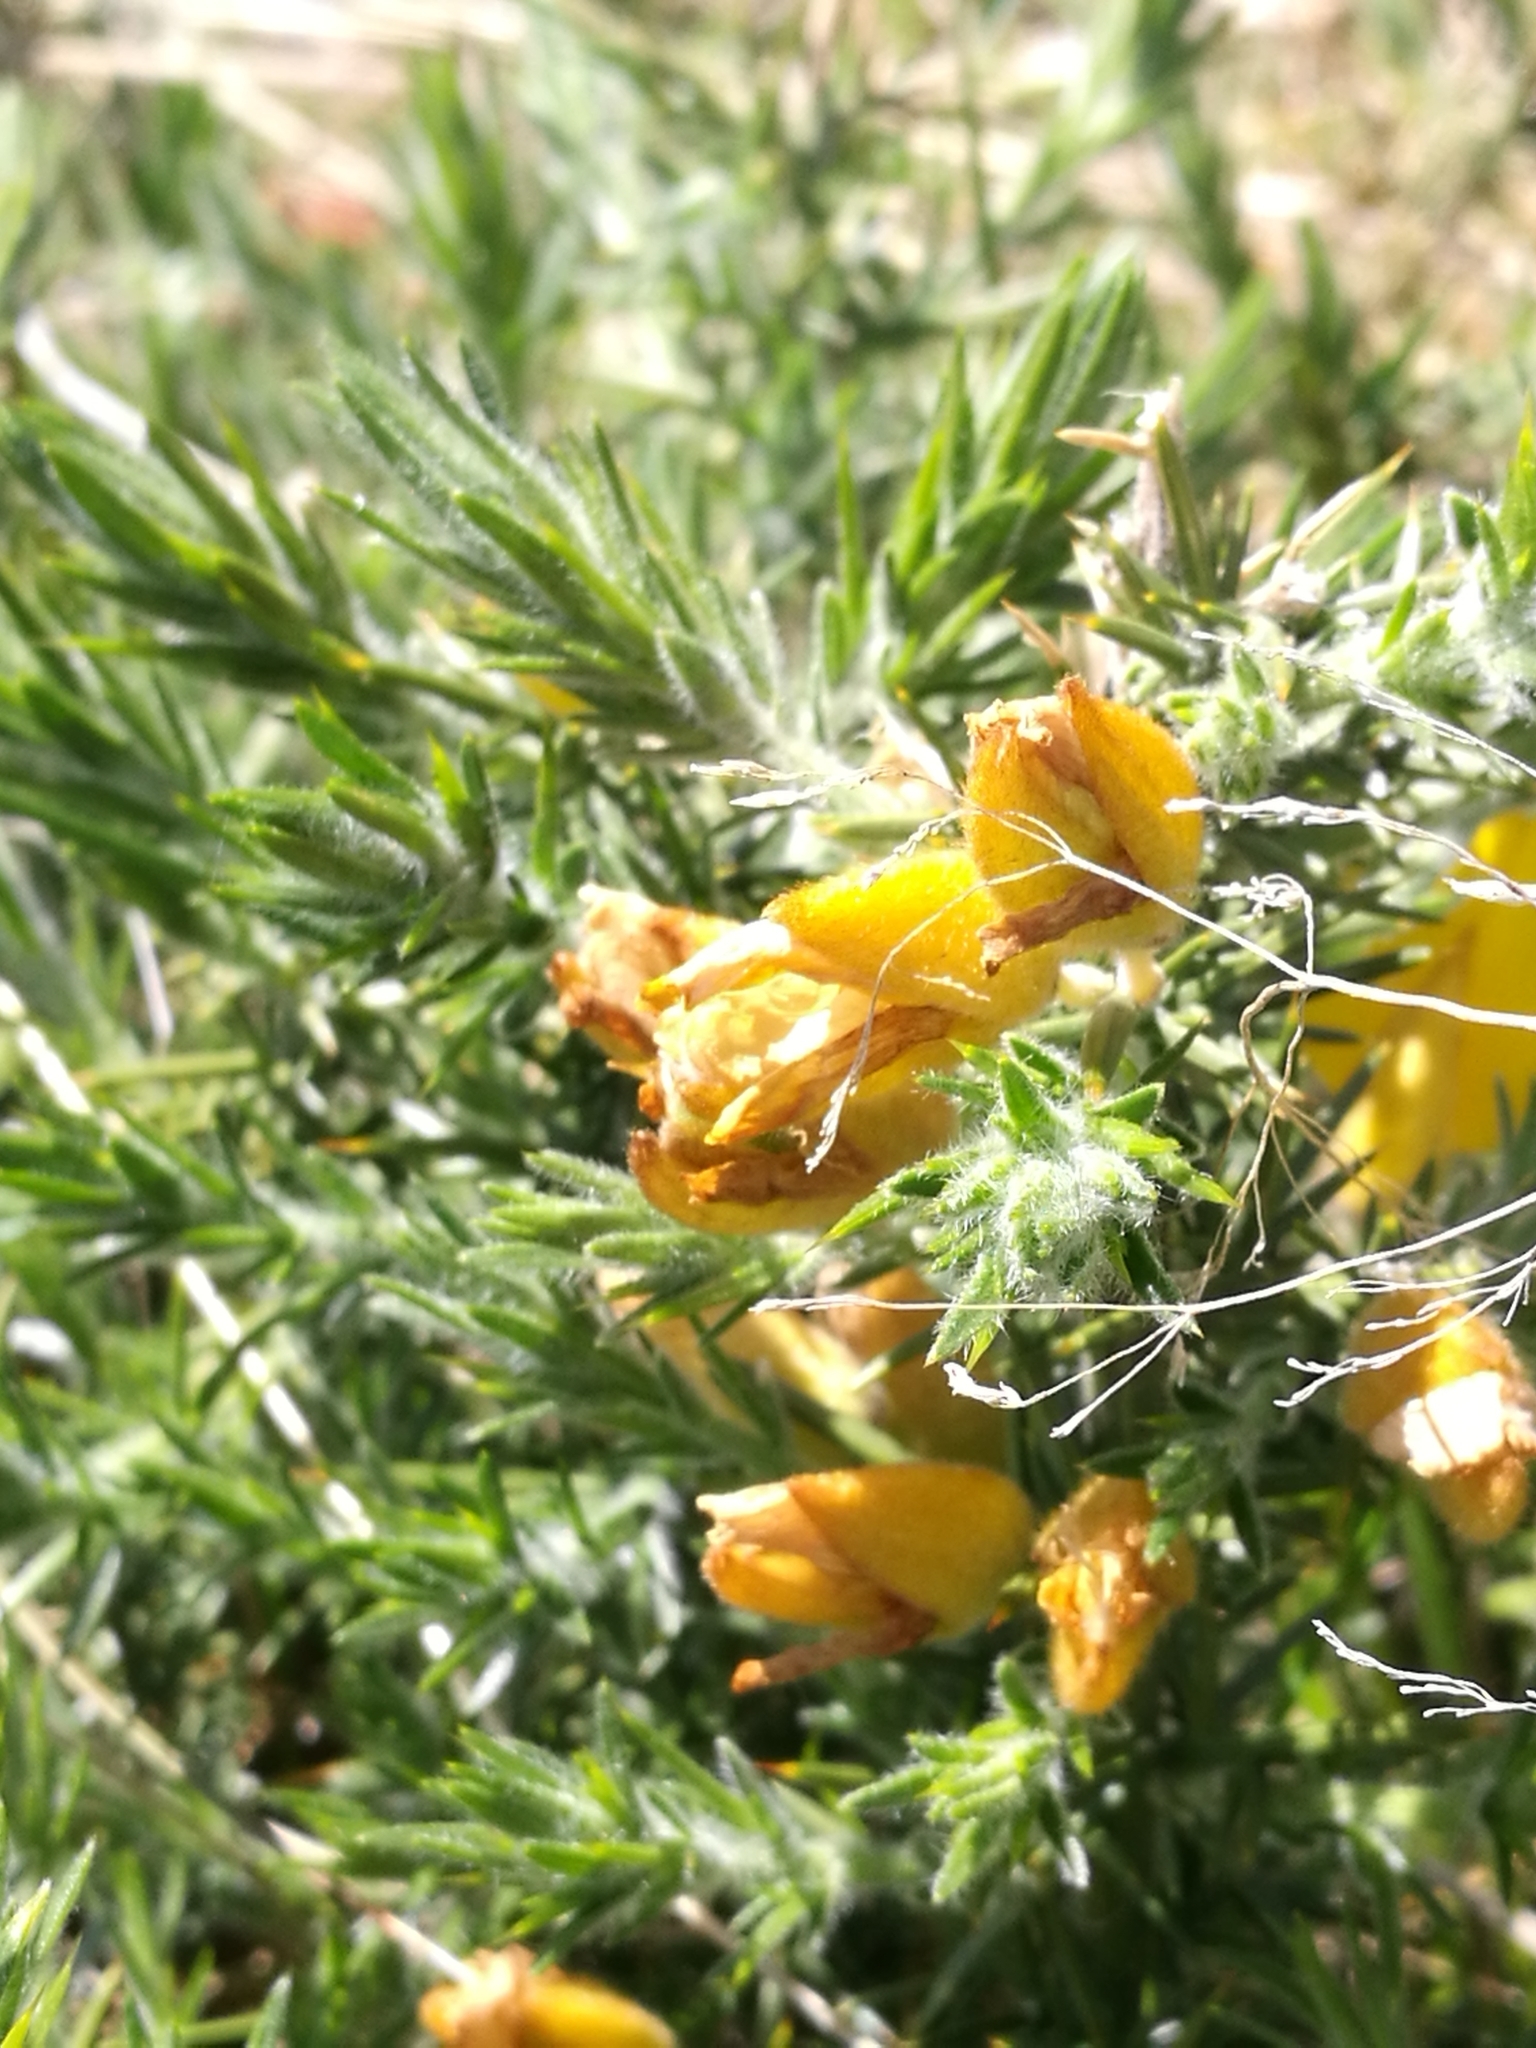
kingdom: Plantae
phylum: Tracheophyta
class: Magnoliopsida
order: Fabales
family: Fabaceae
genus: Ulex
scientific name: Ulex europaeus
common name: Common gorse
